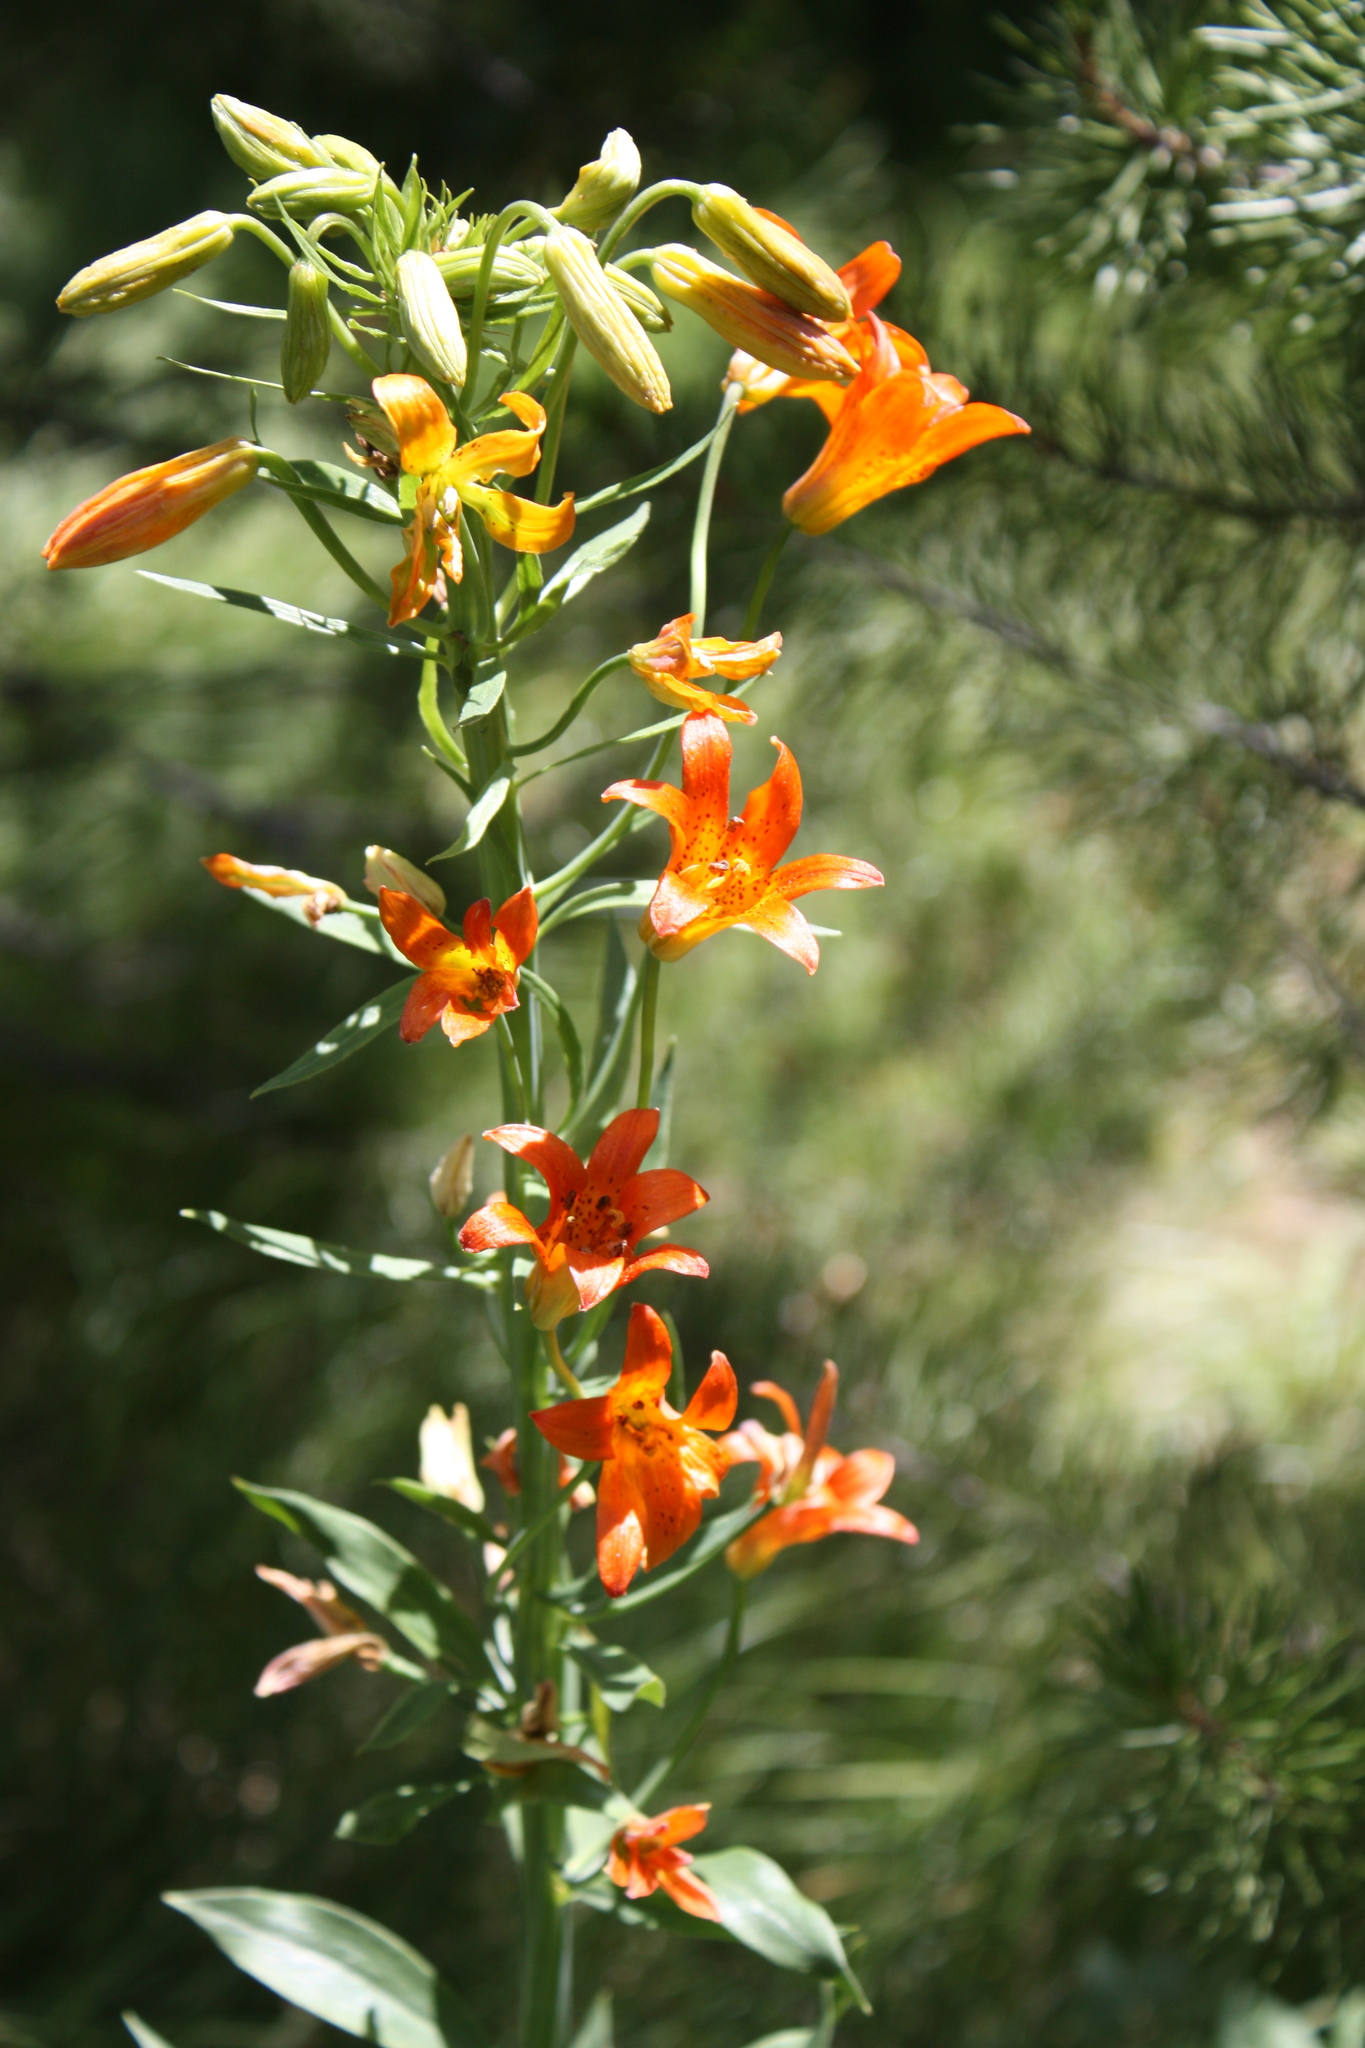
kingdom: Plantae
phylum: Tracheophyta
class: Liliopsida
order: Liliales
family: Liliaceae
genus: Lilium
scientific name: Lilium parvum
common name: Alpine lily
